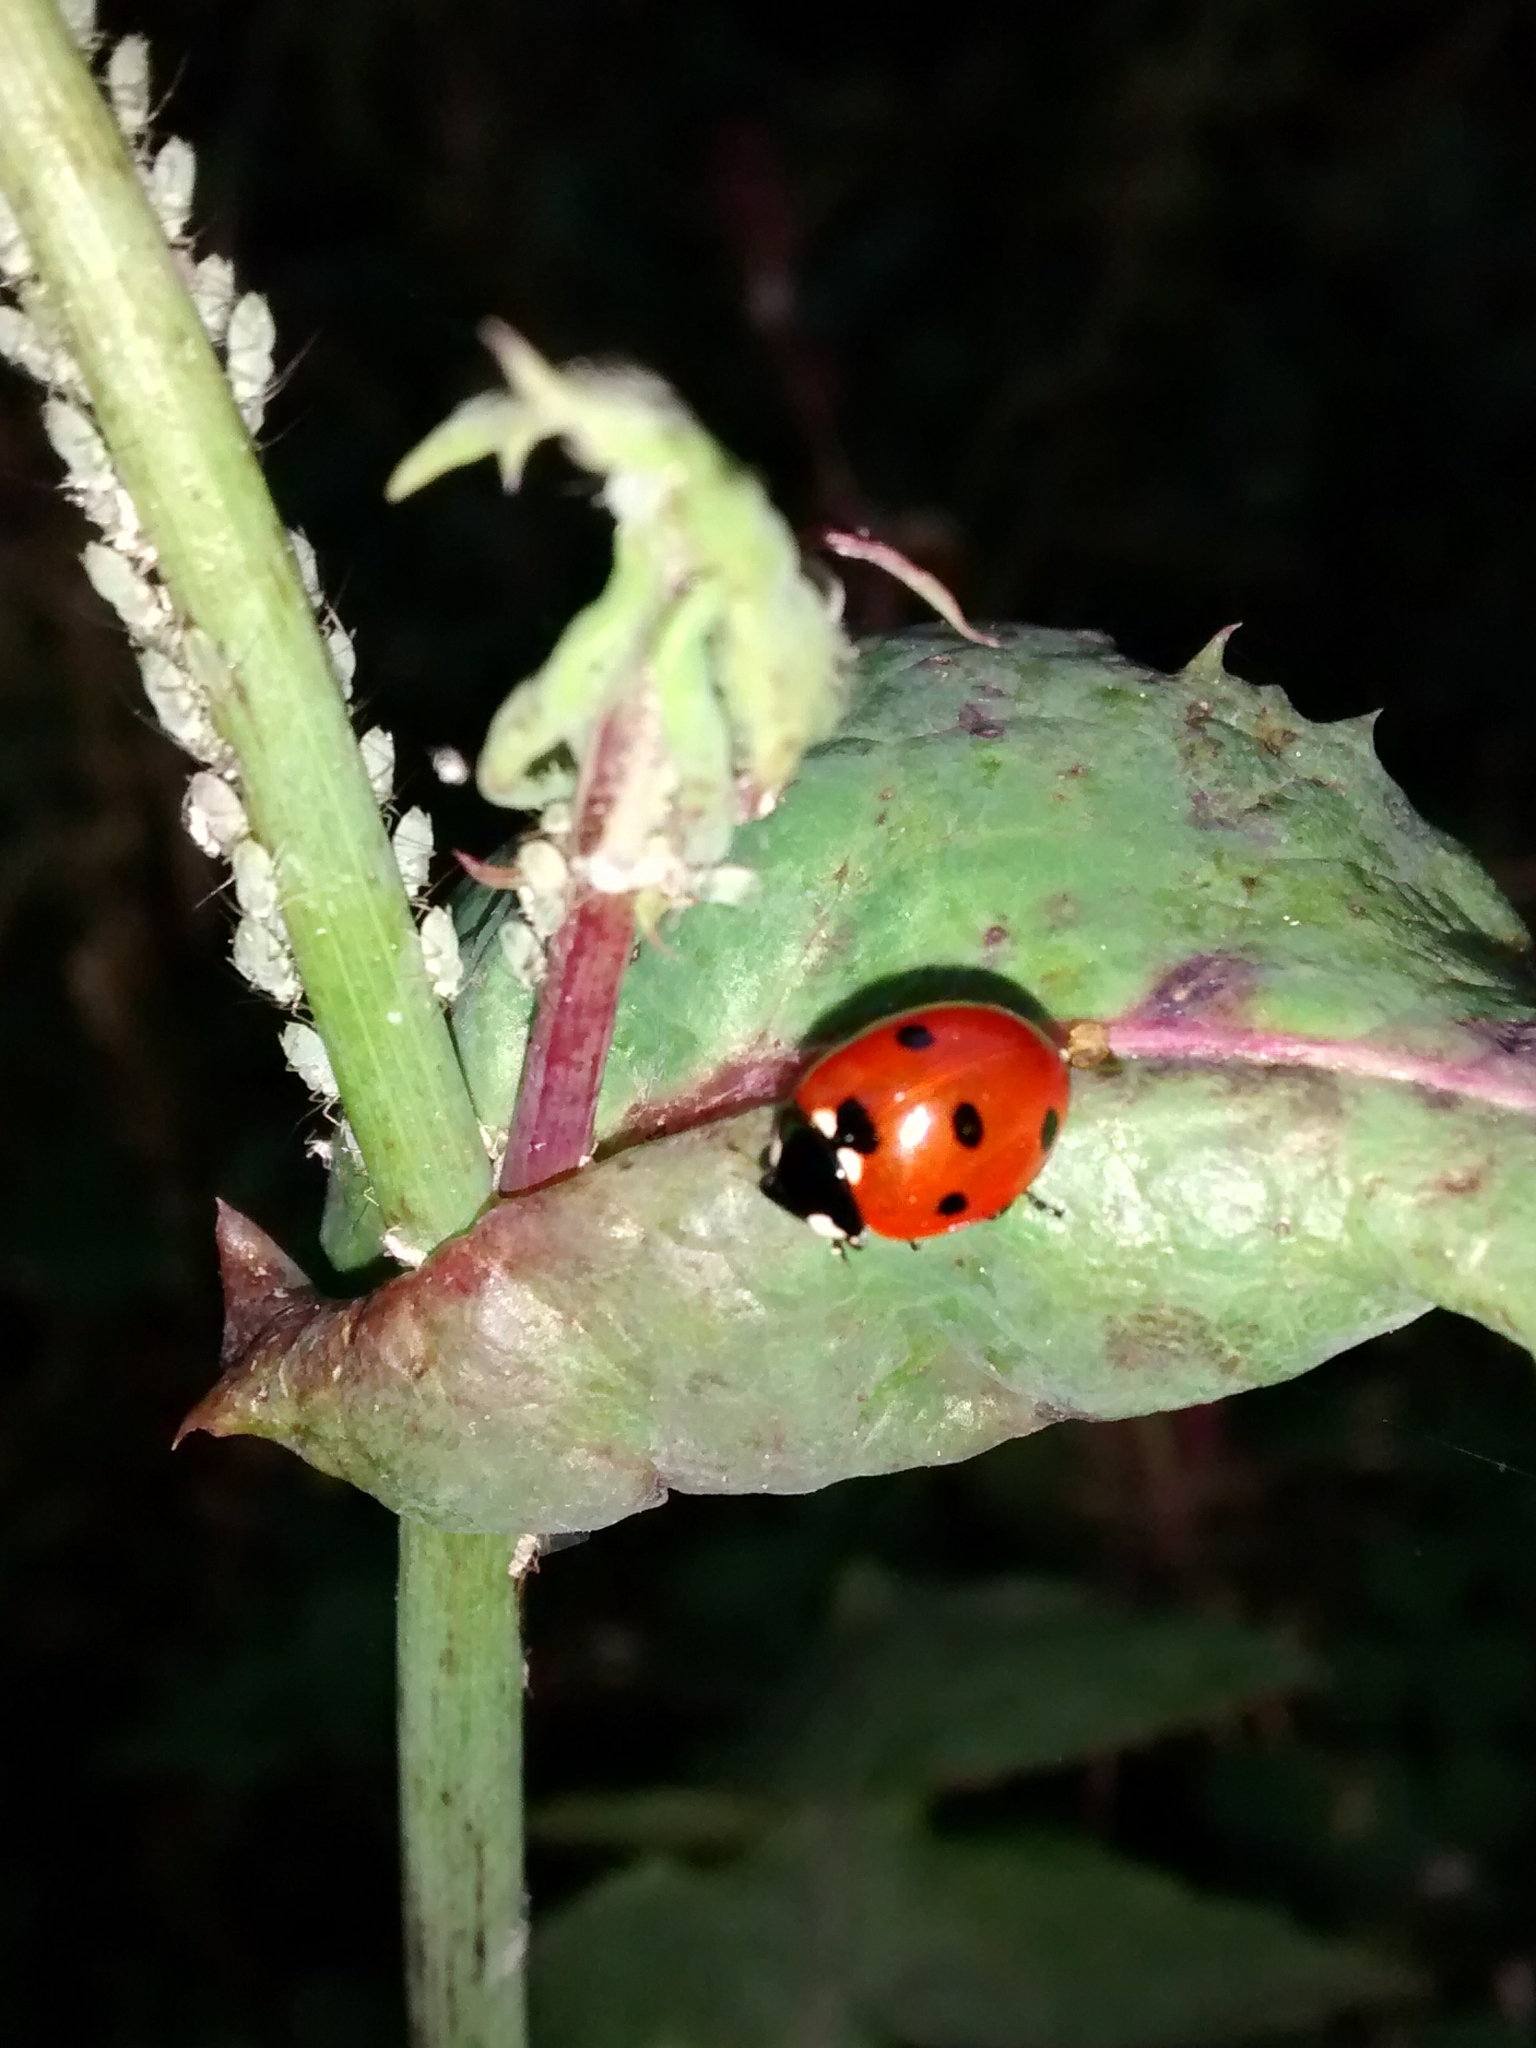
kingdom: Animalia
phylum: Arthropoda
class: Insecta
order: Coleoptera
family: Coccinellidae
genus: Coccinella
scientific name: Coccinella septempunctata
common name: Sevenspotted lady beetle
